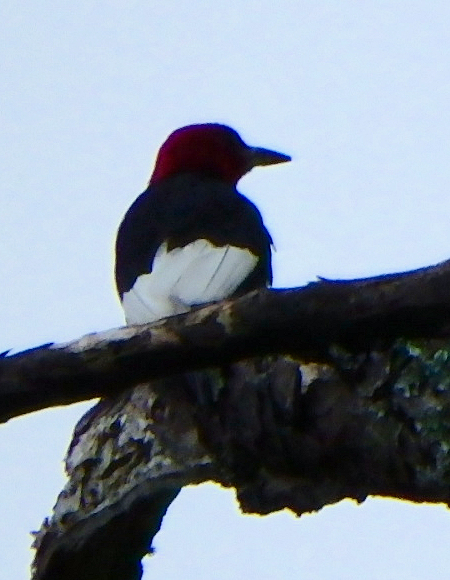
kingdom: Animalia
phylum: Chordata
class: Aves
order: Piciformes
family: Picidae
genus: Melanerpes
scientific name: Melanerpes erythrocephalus
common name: Red-headed woodpecker
